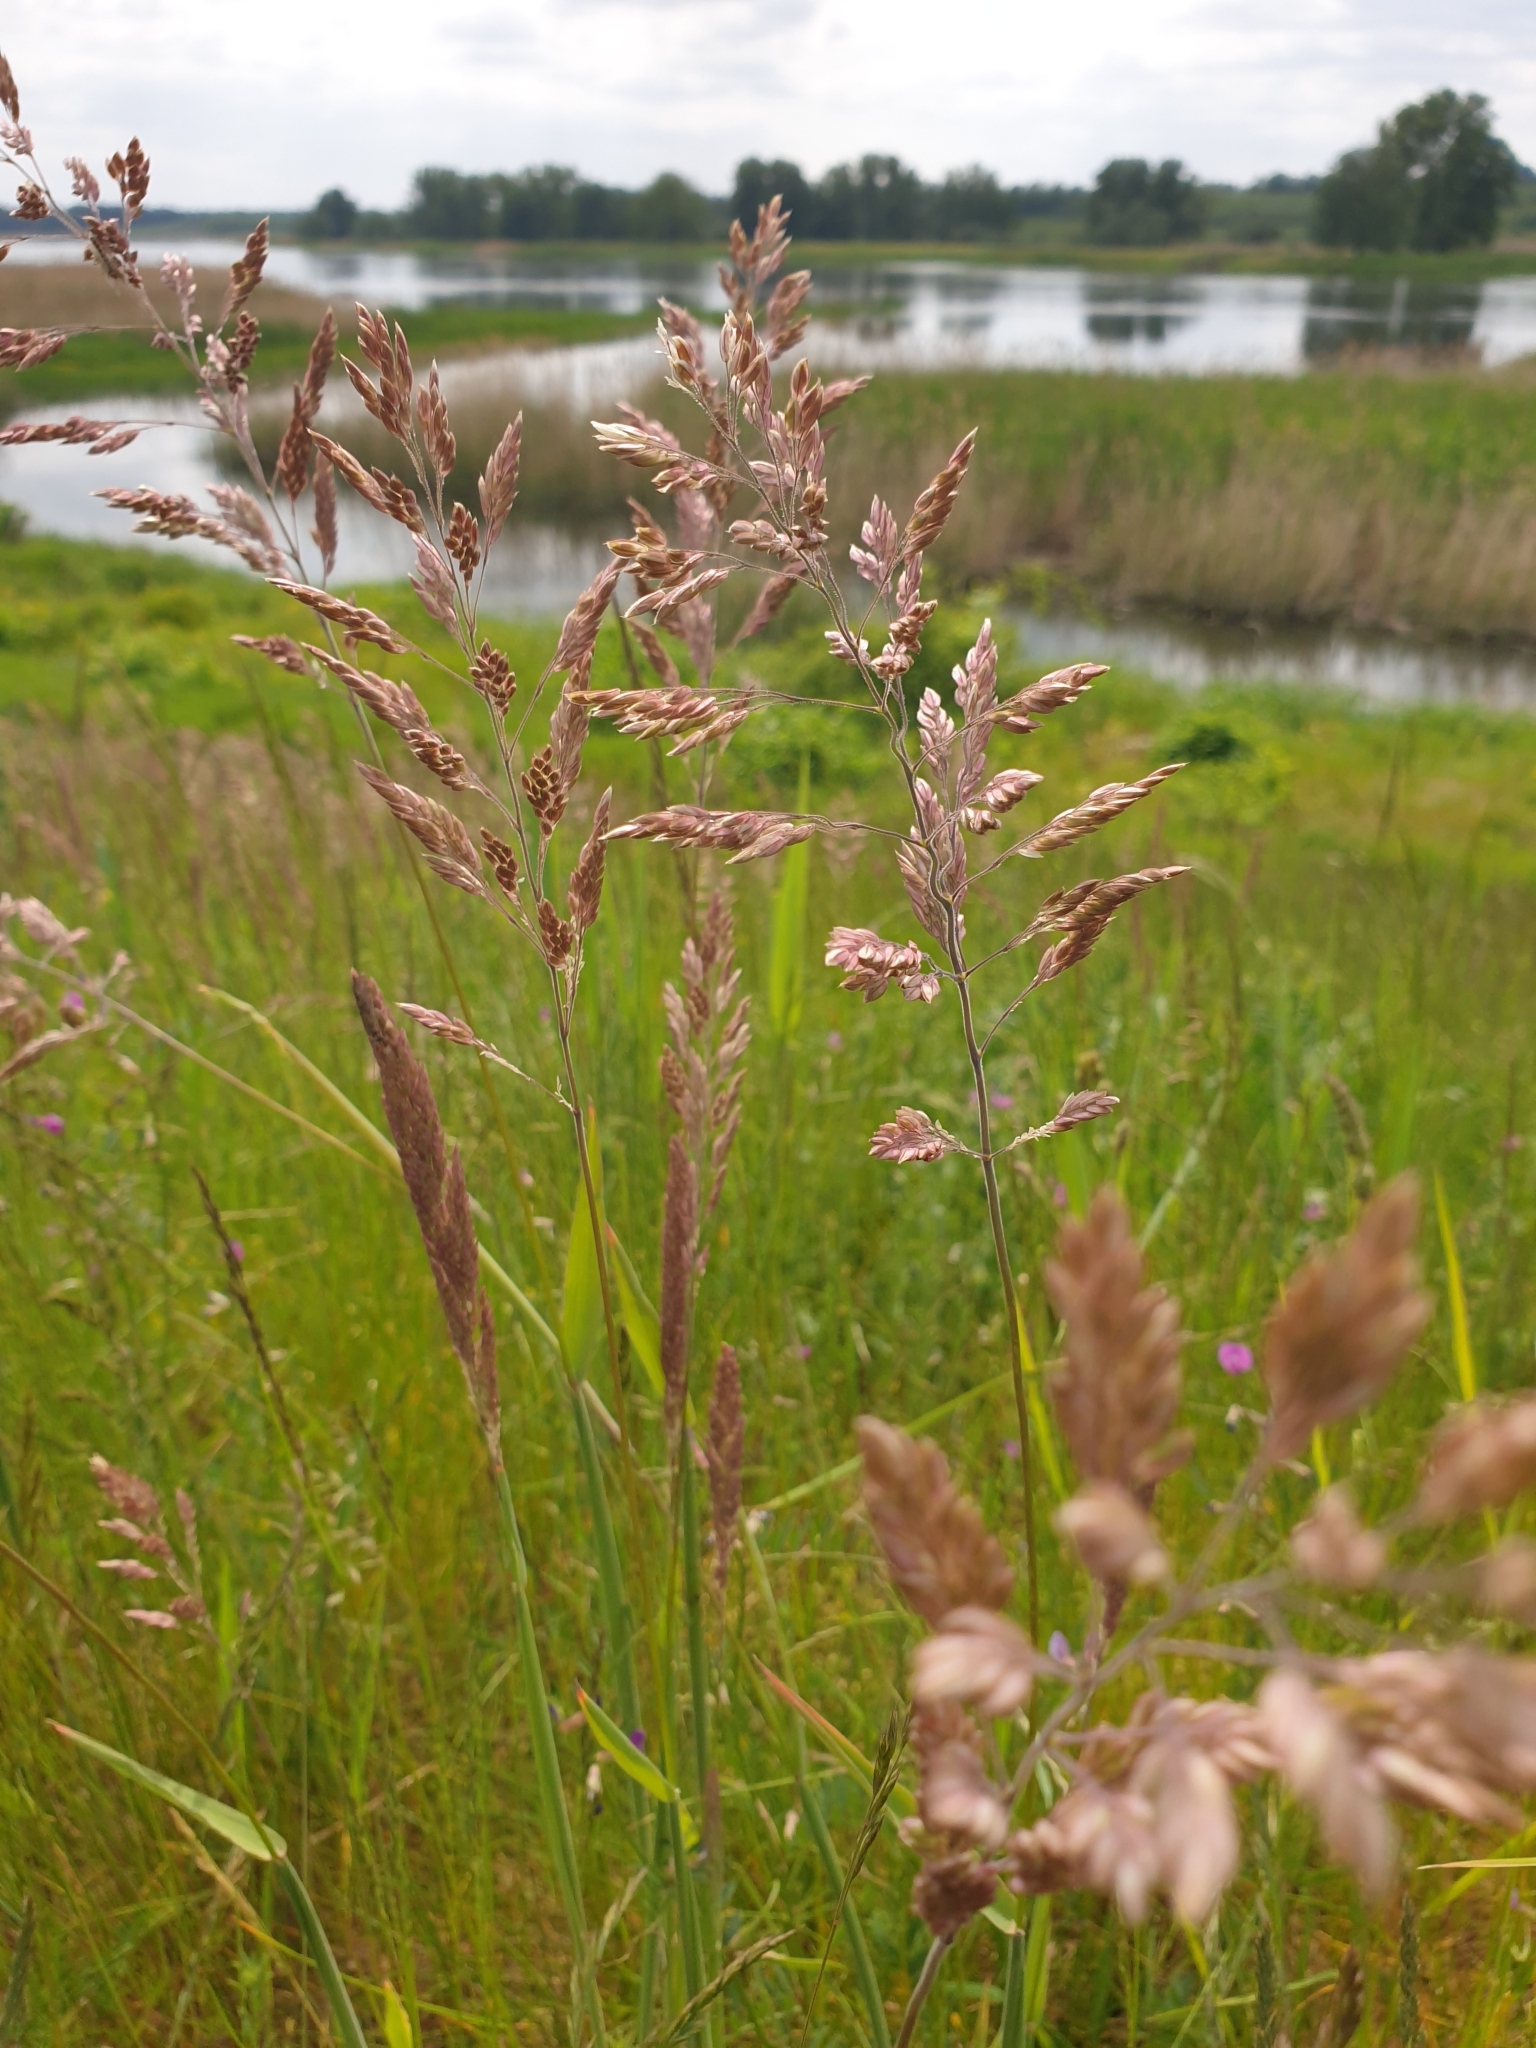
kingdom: Plantae
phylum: Tracheophyta
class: Liliopsida
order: Poales
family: Poaceae
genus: Holcus
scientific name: Holcus lanatus
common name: Yorkshire-fog
